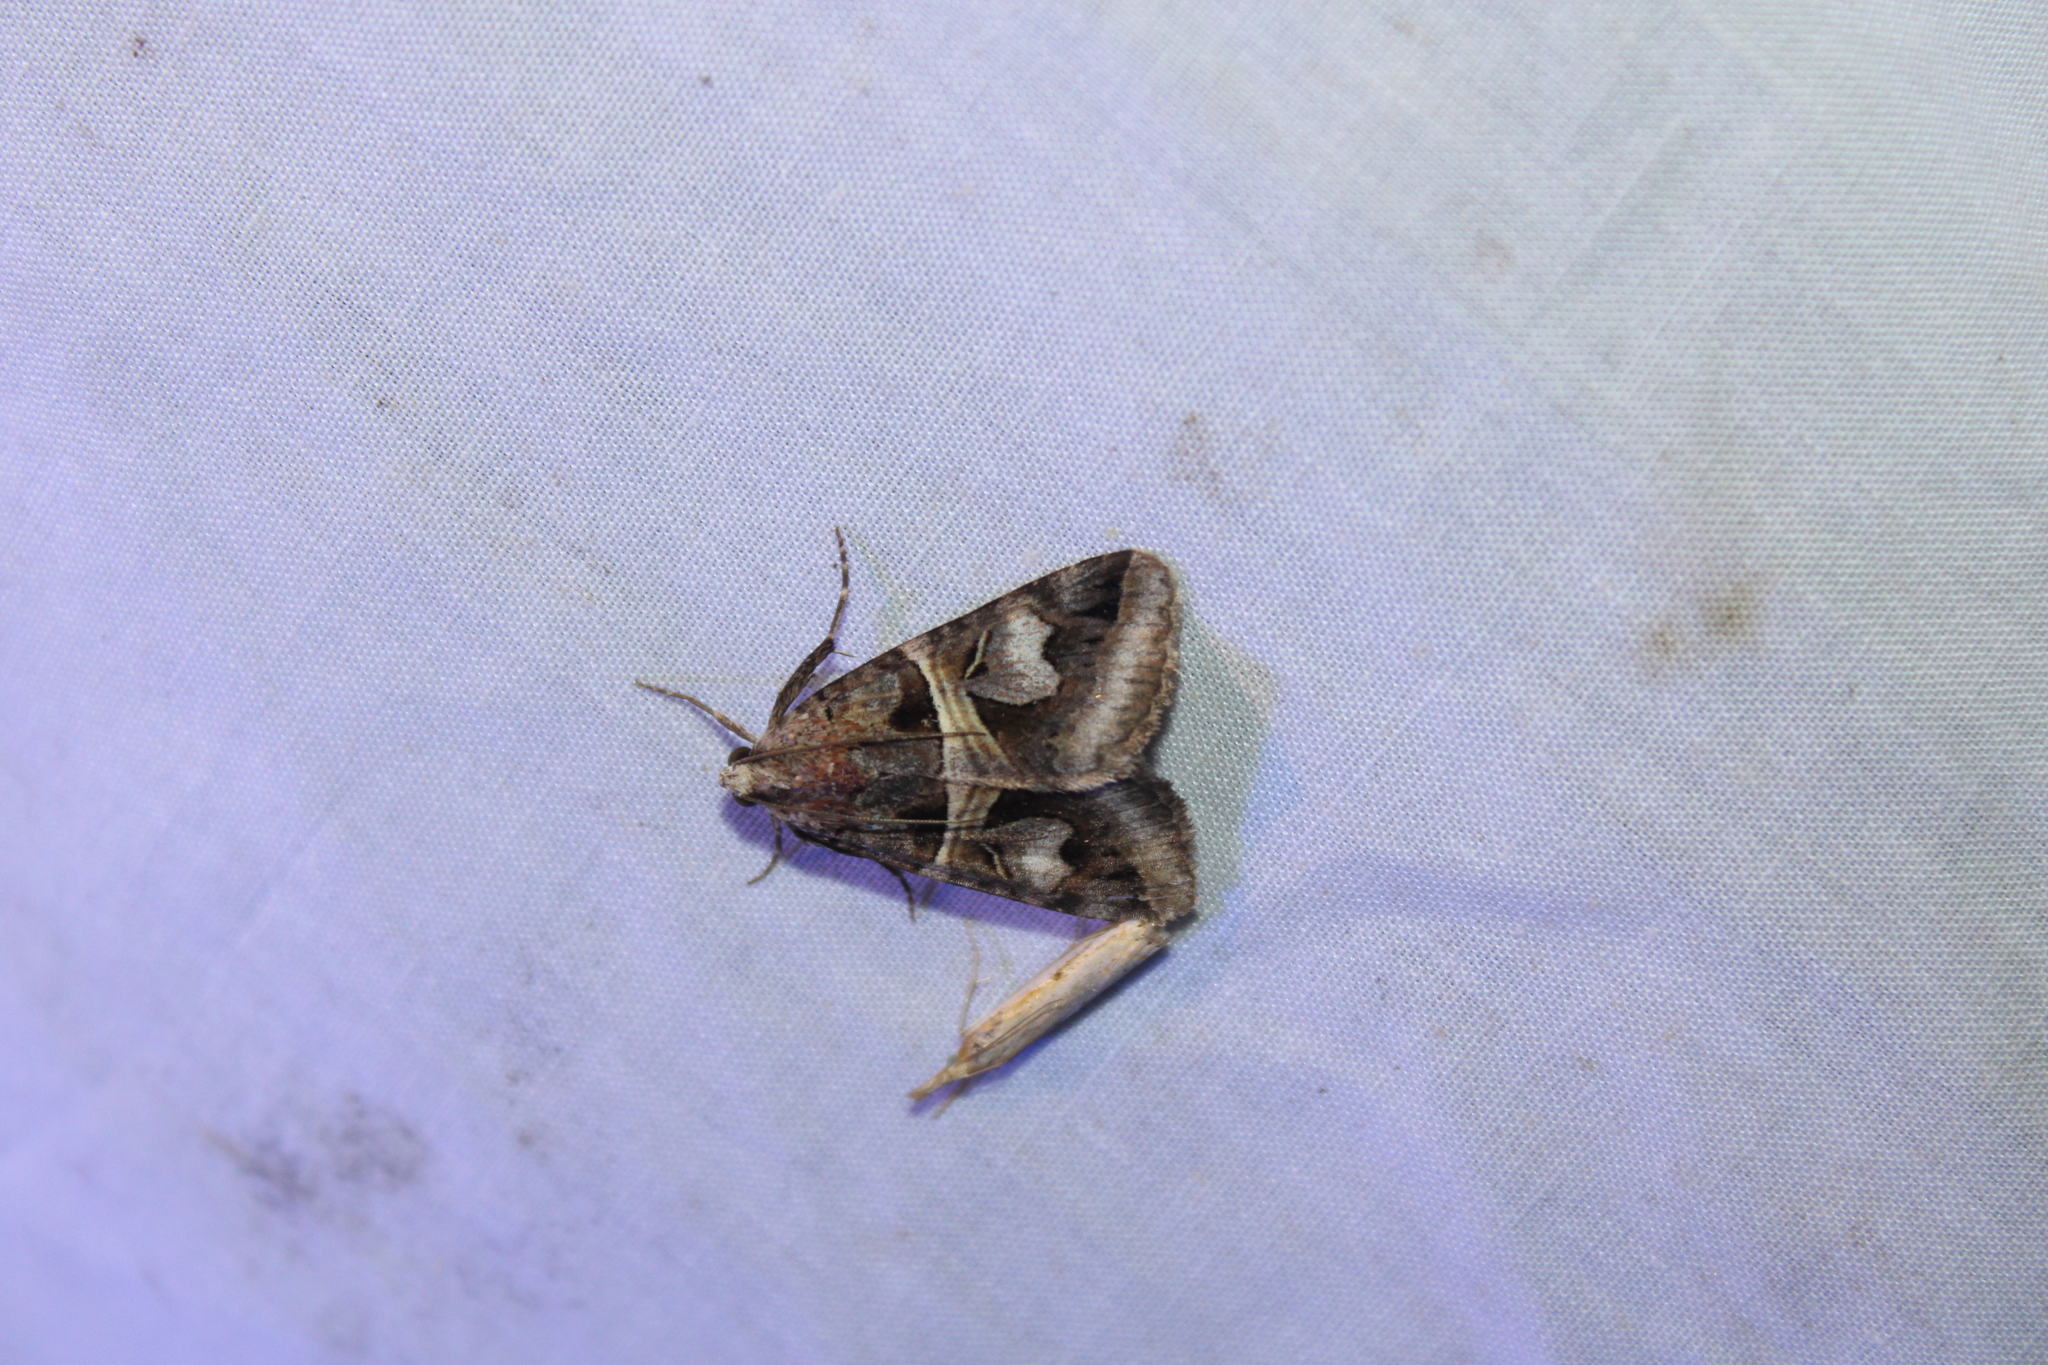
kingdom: Animalia
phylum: Arthropoda
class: Insecta
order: Lepidoptera
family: Erebidae
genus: Drasteria
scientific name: Drasteria grandirena
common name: Figure-seven moth
